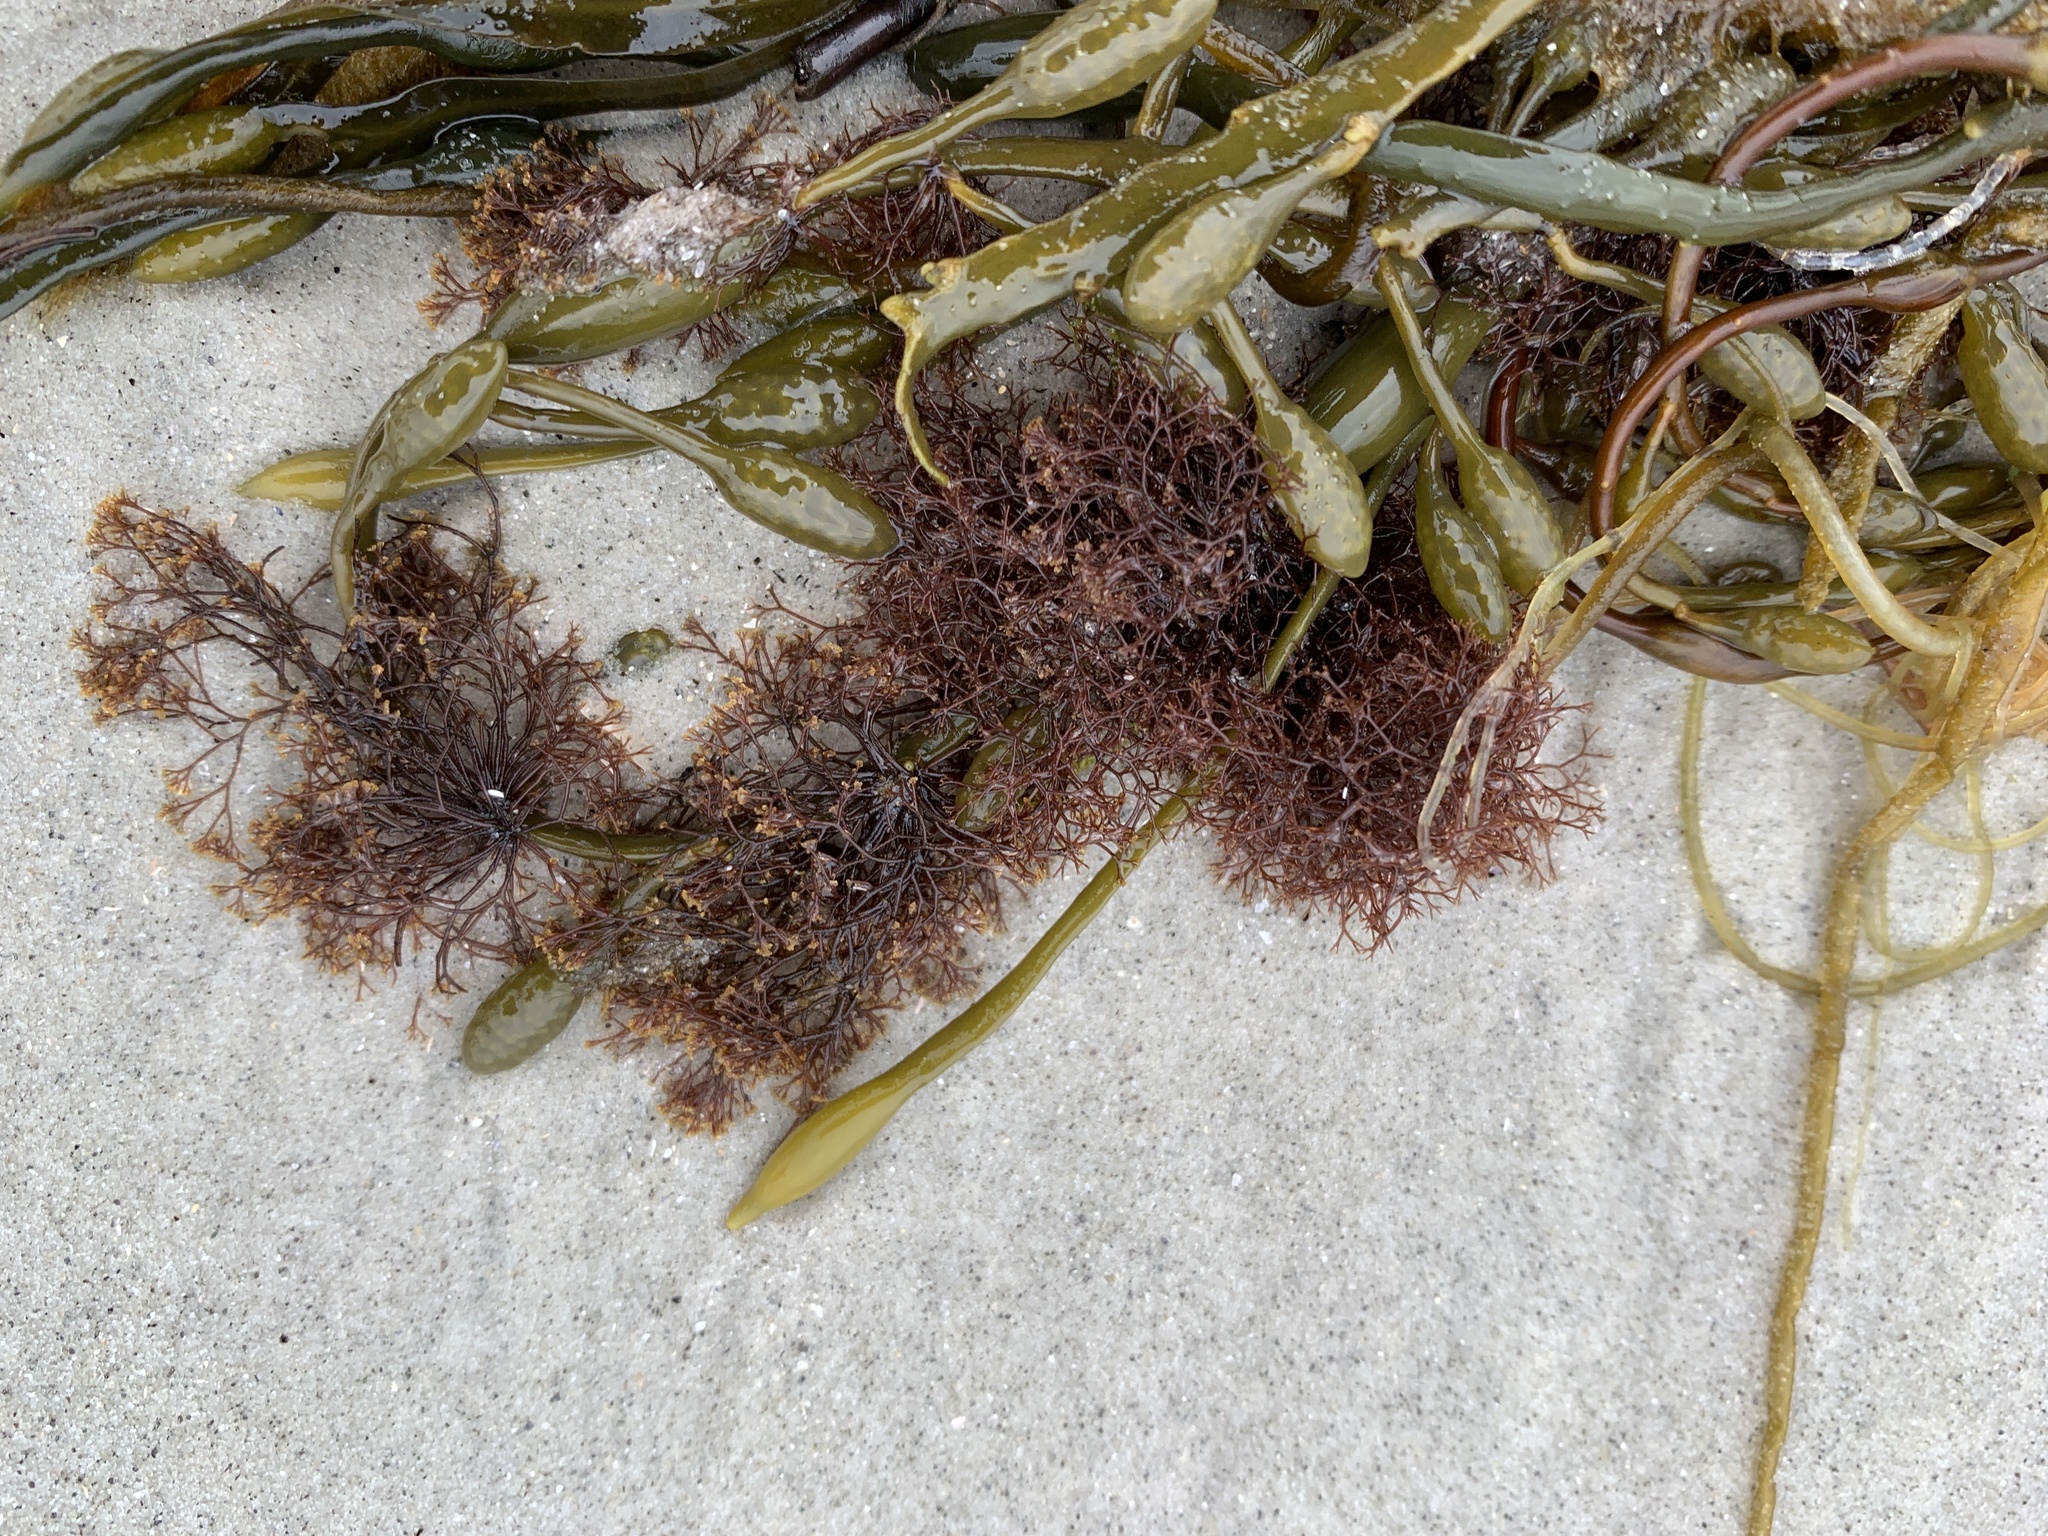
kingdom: Plantae
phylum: Rhodophyta
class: Florideophyceae
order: Ceramiales
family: Rhodomelaceae
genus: Vertebrata
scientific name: Vertebrata lanosa
